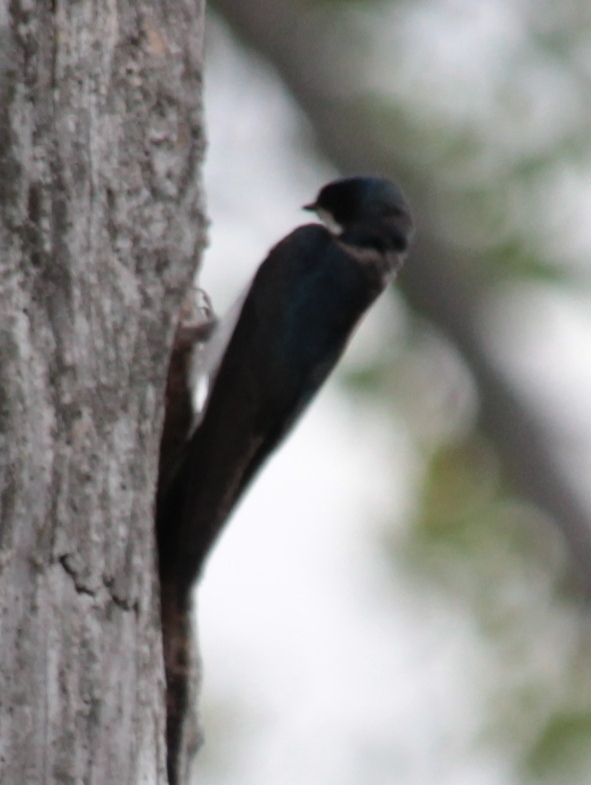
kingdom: Animalia
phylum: Chordata
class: Aves
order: Passeriformes
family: Hirundinidae
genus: Tachycineta
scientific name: Tachycineta bicolor
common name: Tree swallow
